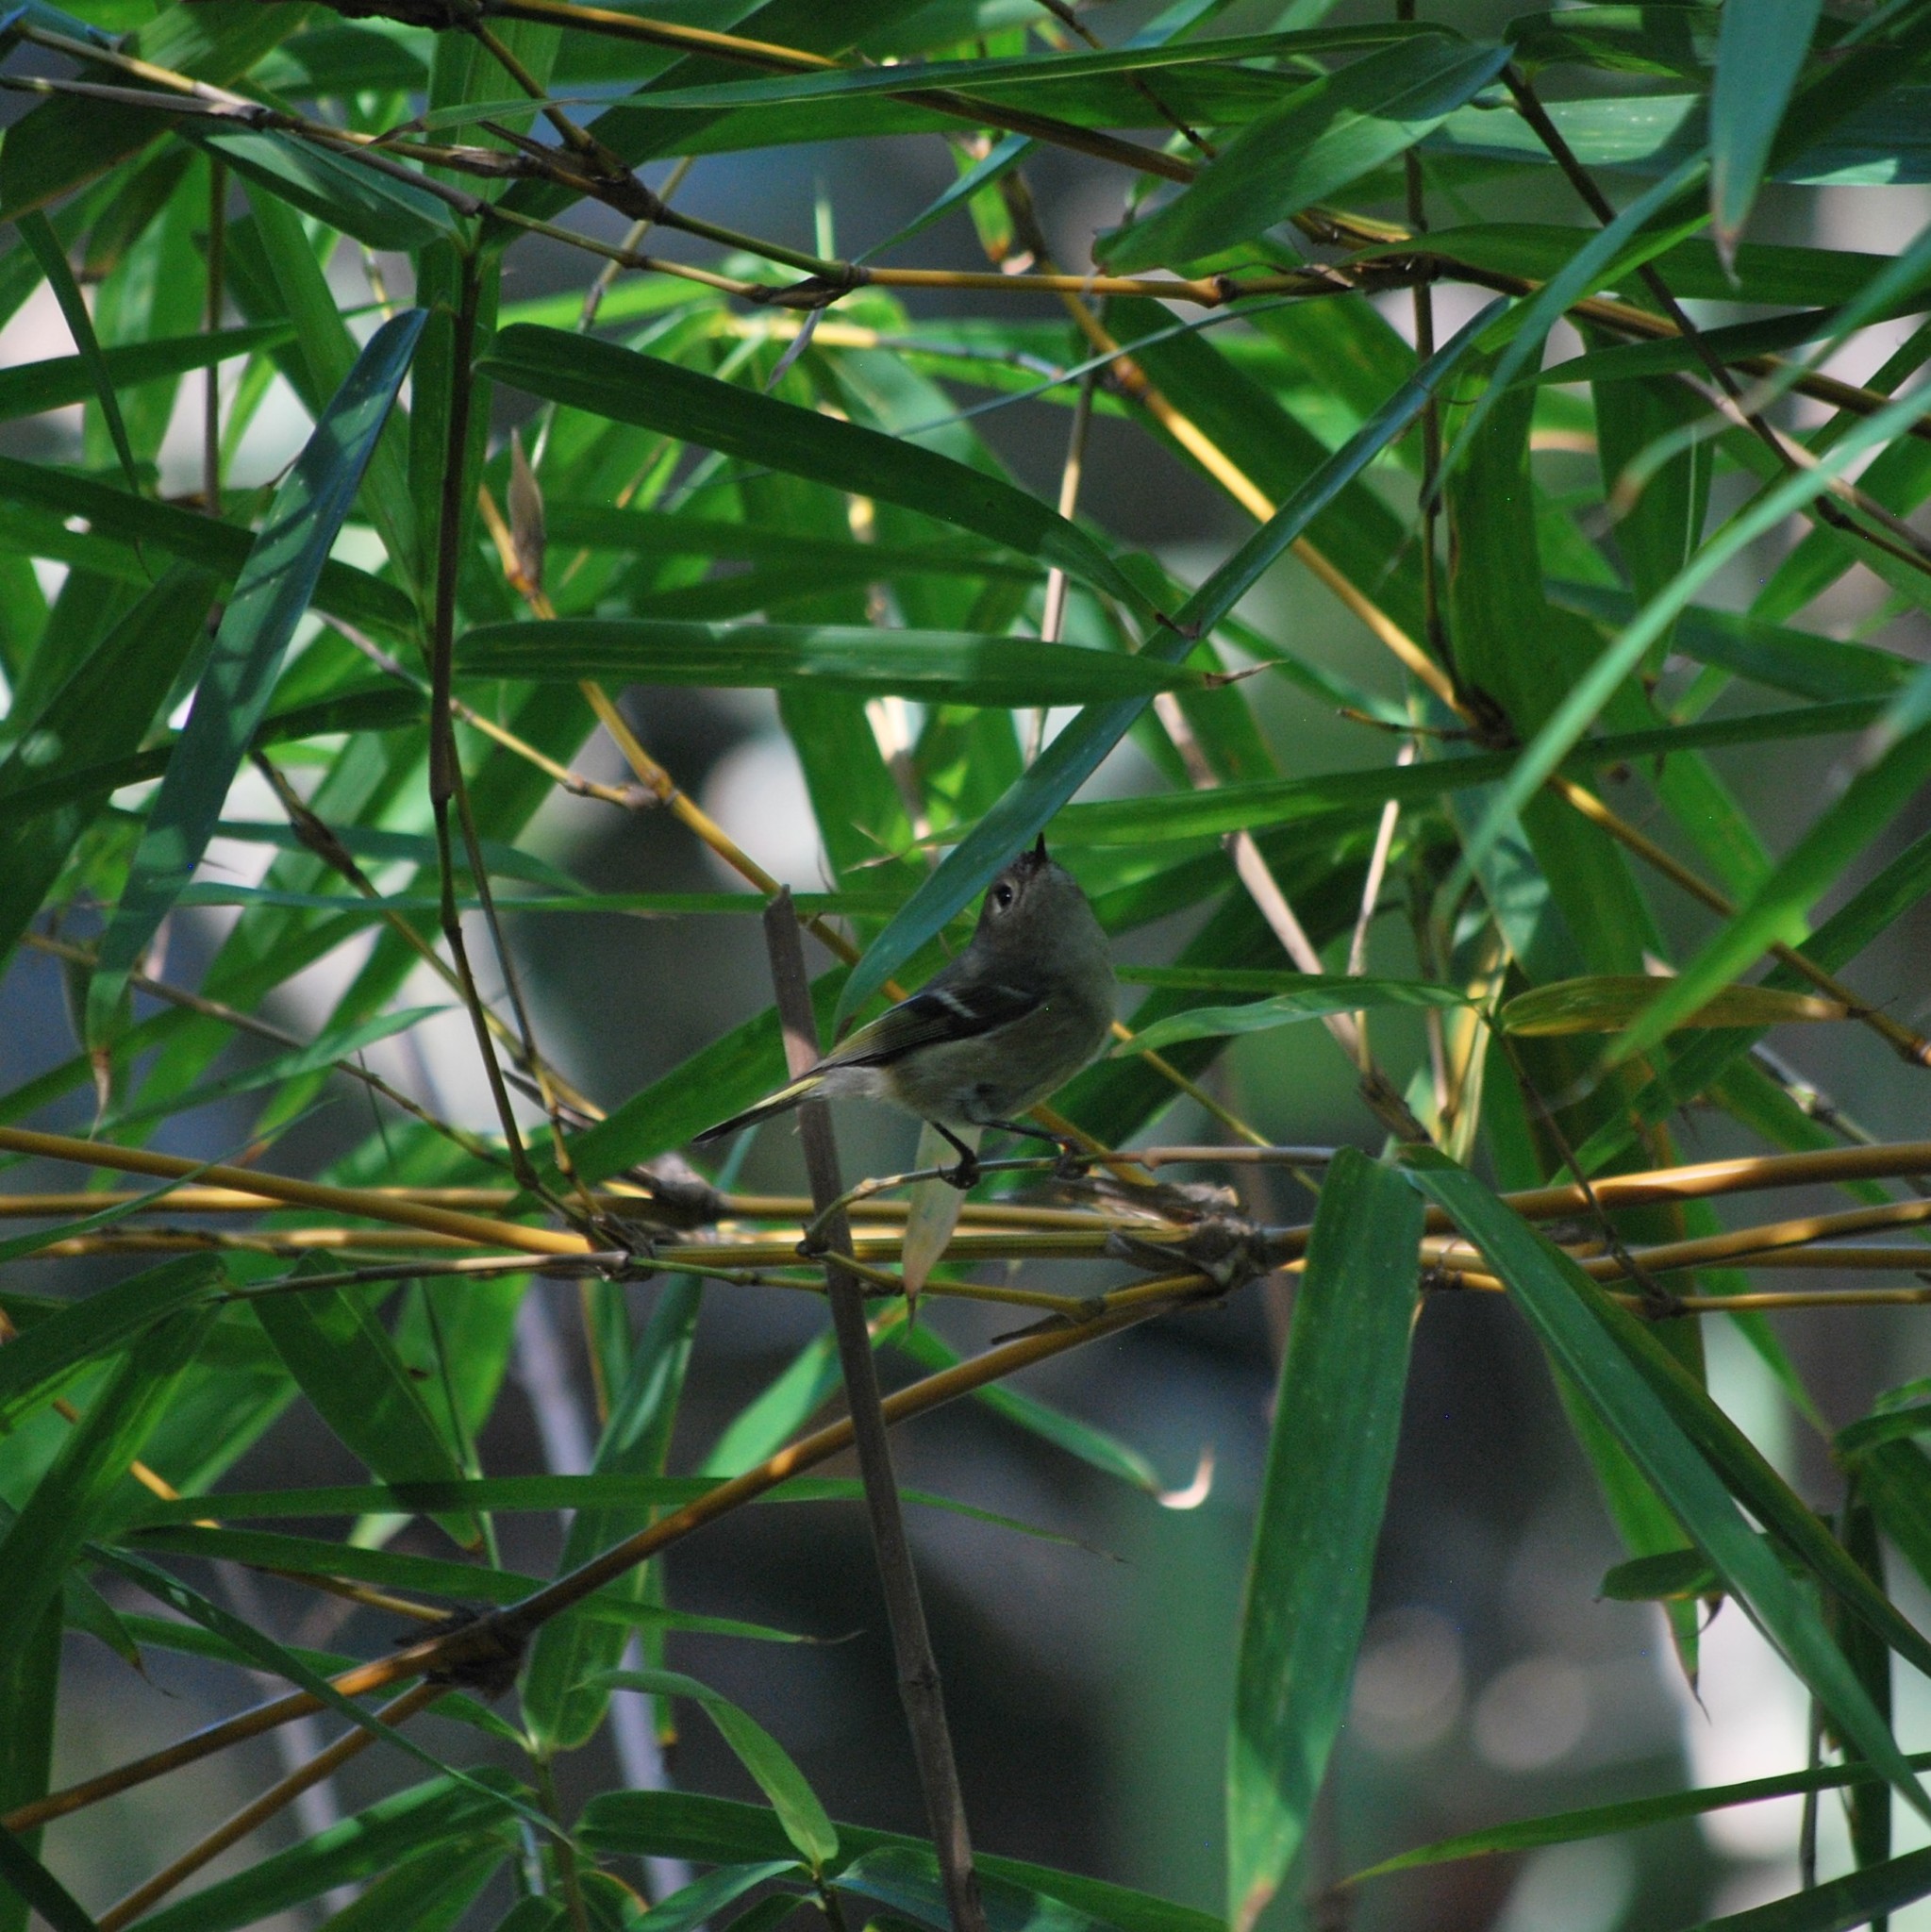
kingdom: Animalia
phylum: Chordata
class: Aves
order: Passeriformes
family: Regulidae
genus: Regulus
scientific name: Regulus calendula
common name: Ruby-crowned kinglet
